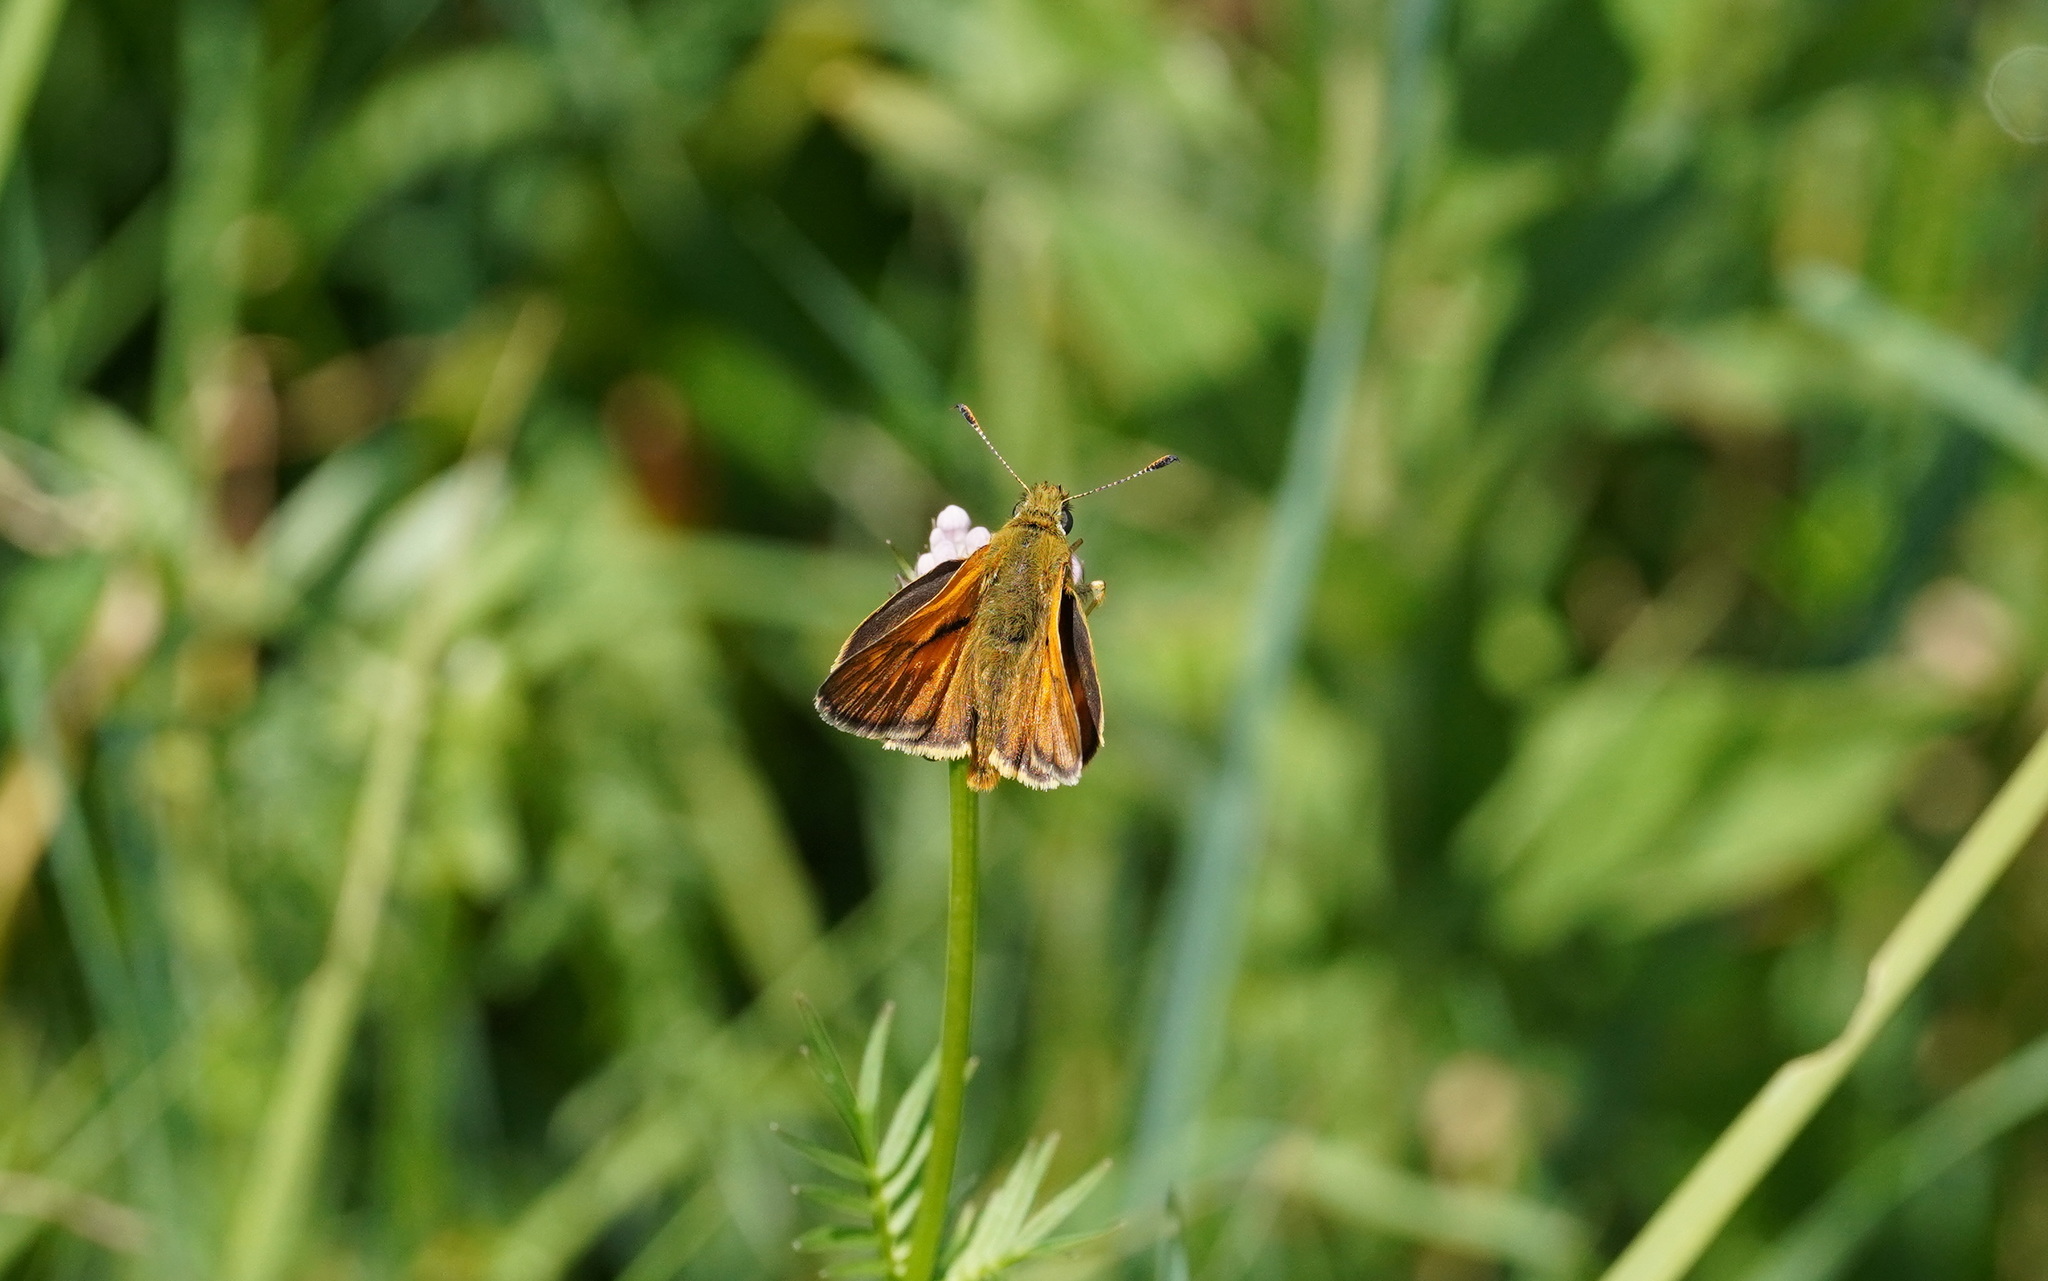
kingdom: Animalia
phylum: Arthropoda
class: Insecta
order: Lepidoptera
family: Hesperiidae
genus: Ochlodes
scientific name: Ochlodes venata
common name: Large skipper
